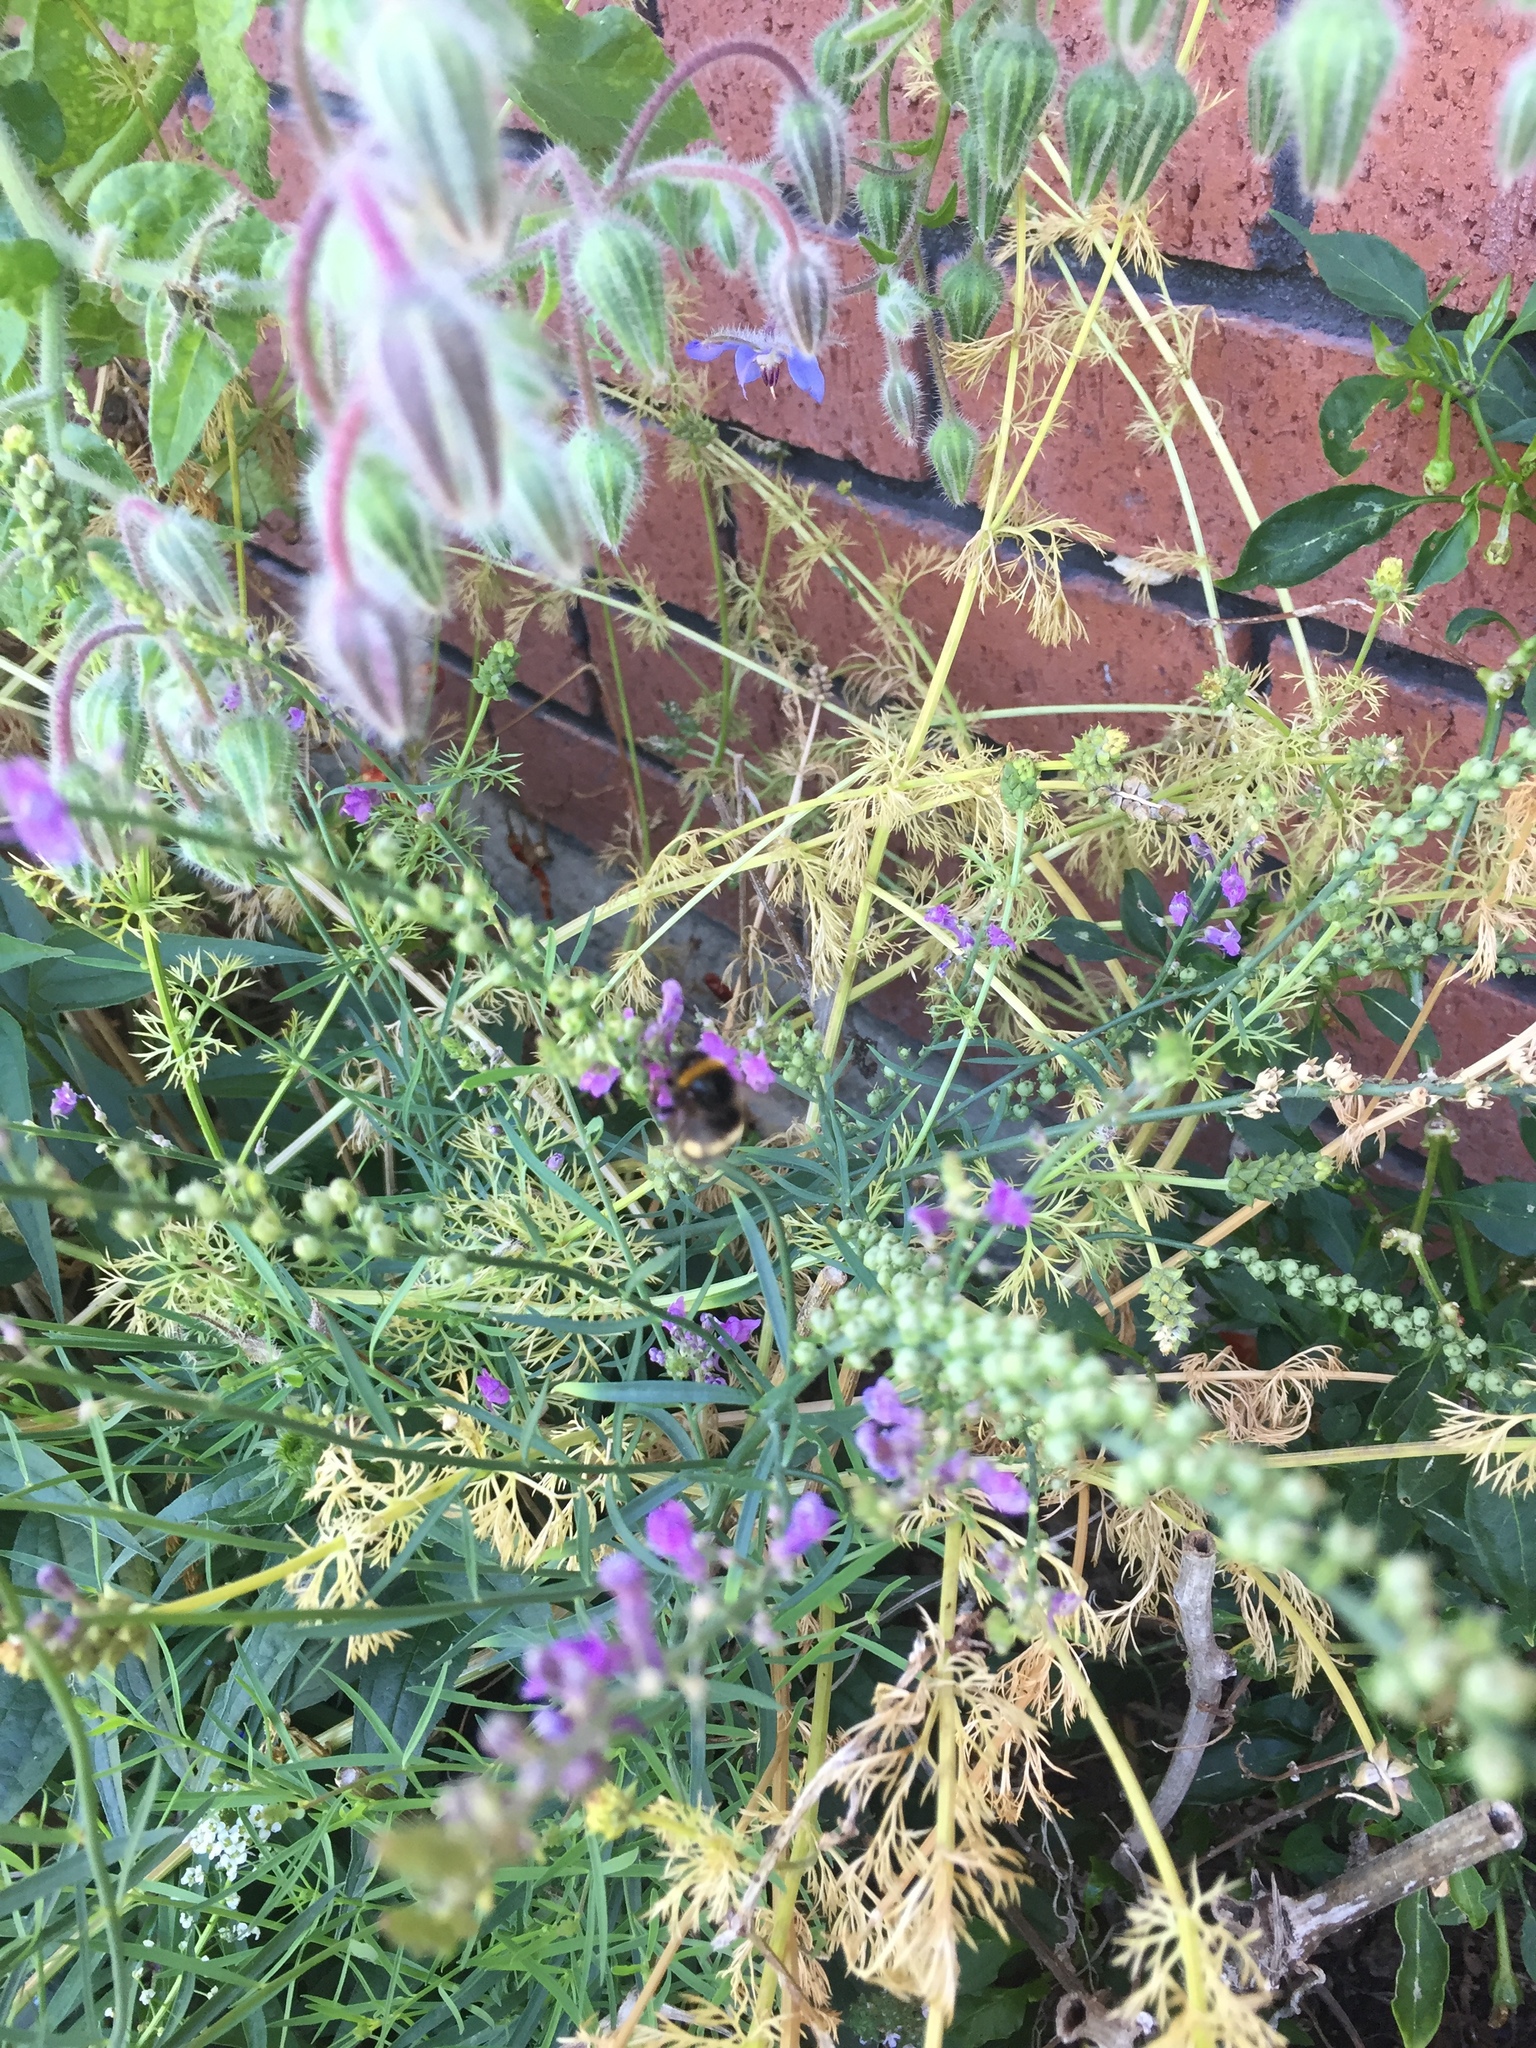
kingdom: Animalia
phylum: Arthropoda
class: Insecta
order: Hymenoptera
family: Apidae
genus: Bombus
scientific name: Bombus terrestris
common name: Buff-tailed bumblebee
